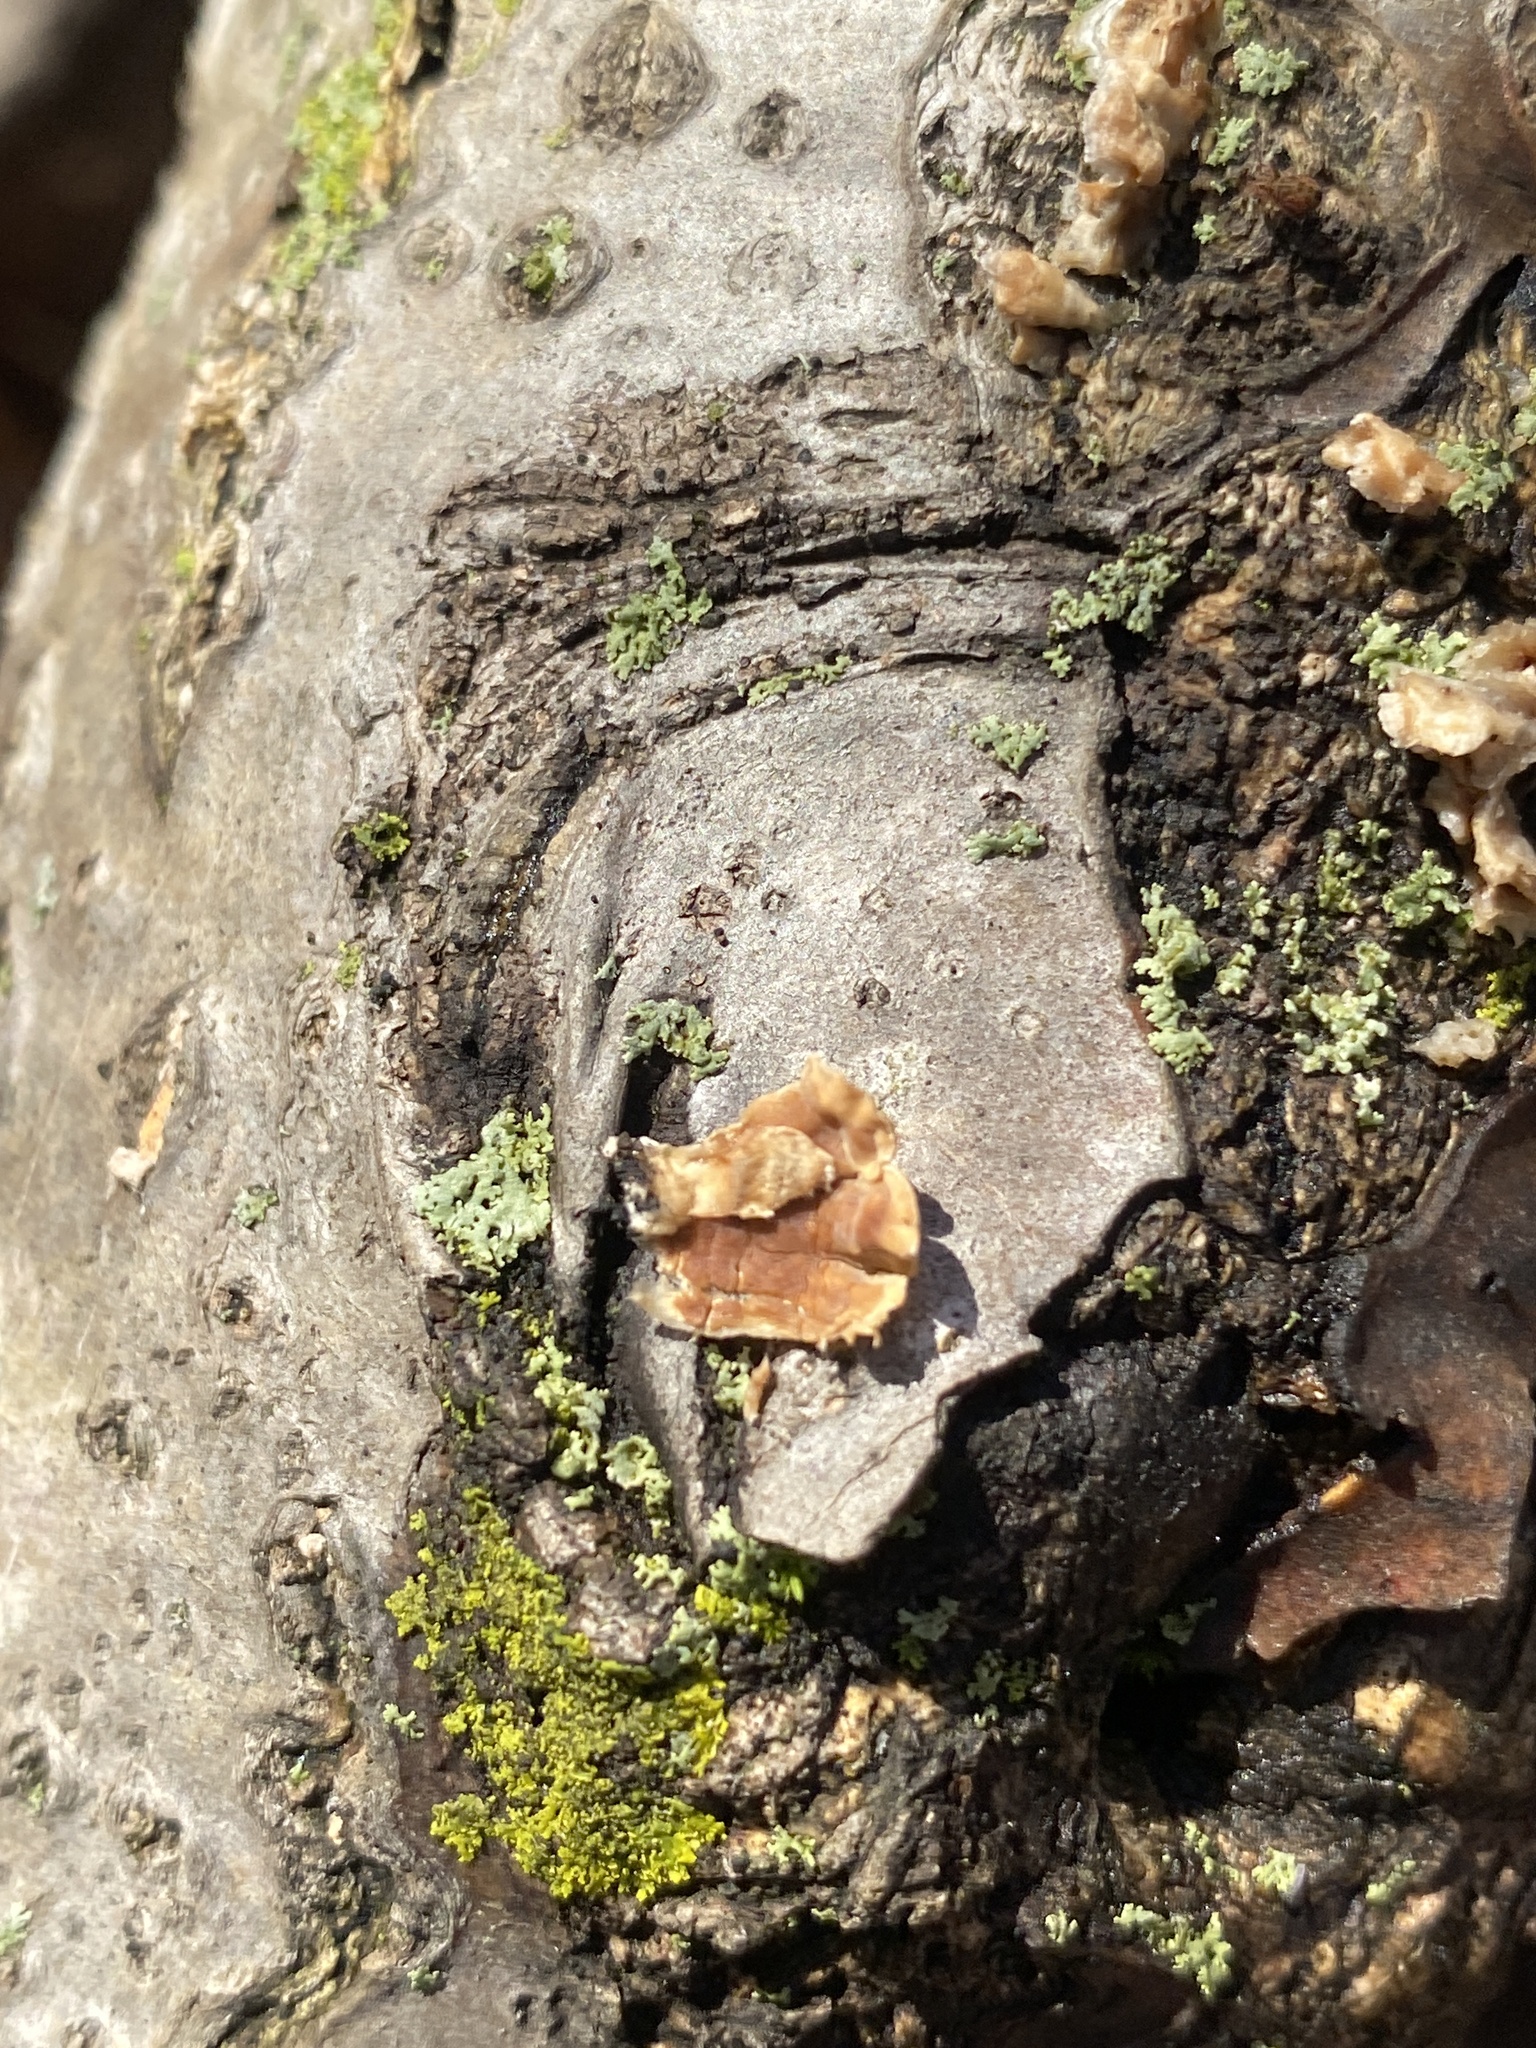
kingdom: Fungi
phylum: Basidiomycota
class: Agaricomycetes
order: Russulales
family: Stereaceae
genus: Stereum
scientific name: Stereum complicatum
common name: Crowded parchment
